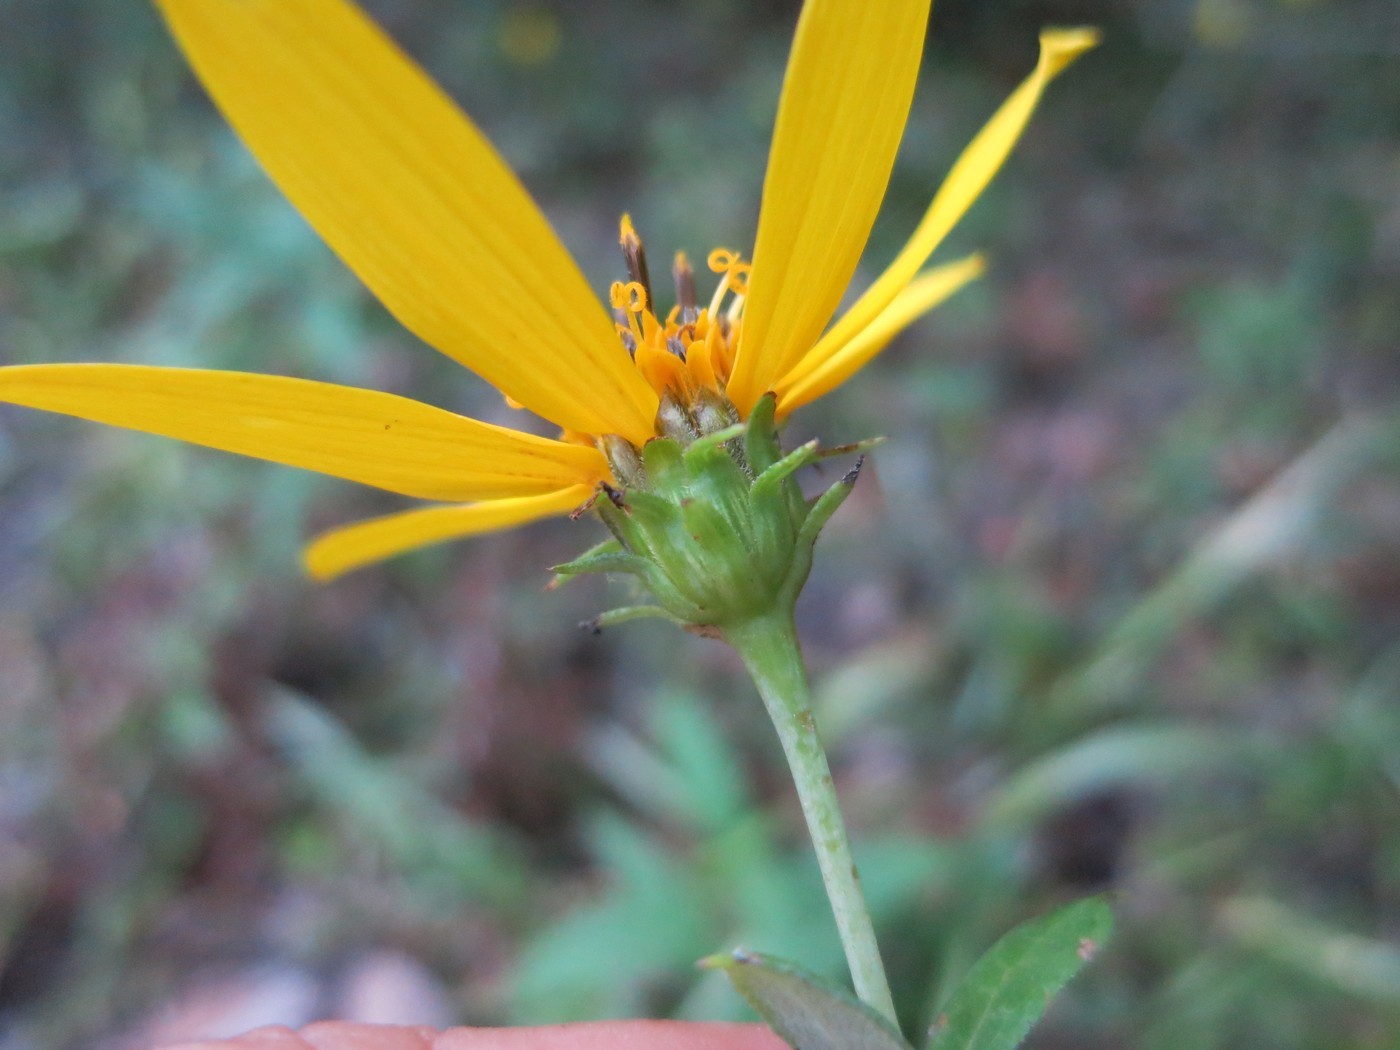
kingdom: Plantae
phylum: Tracheophyta
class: Magnoliopsida
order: Asterales
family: Asteraceae
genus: Helianthus
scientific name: Helianthus eggertii
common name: Eggert's sunflower
